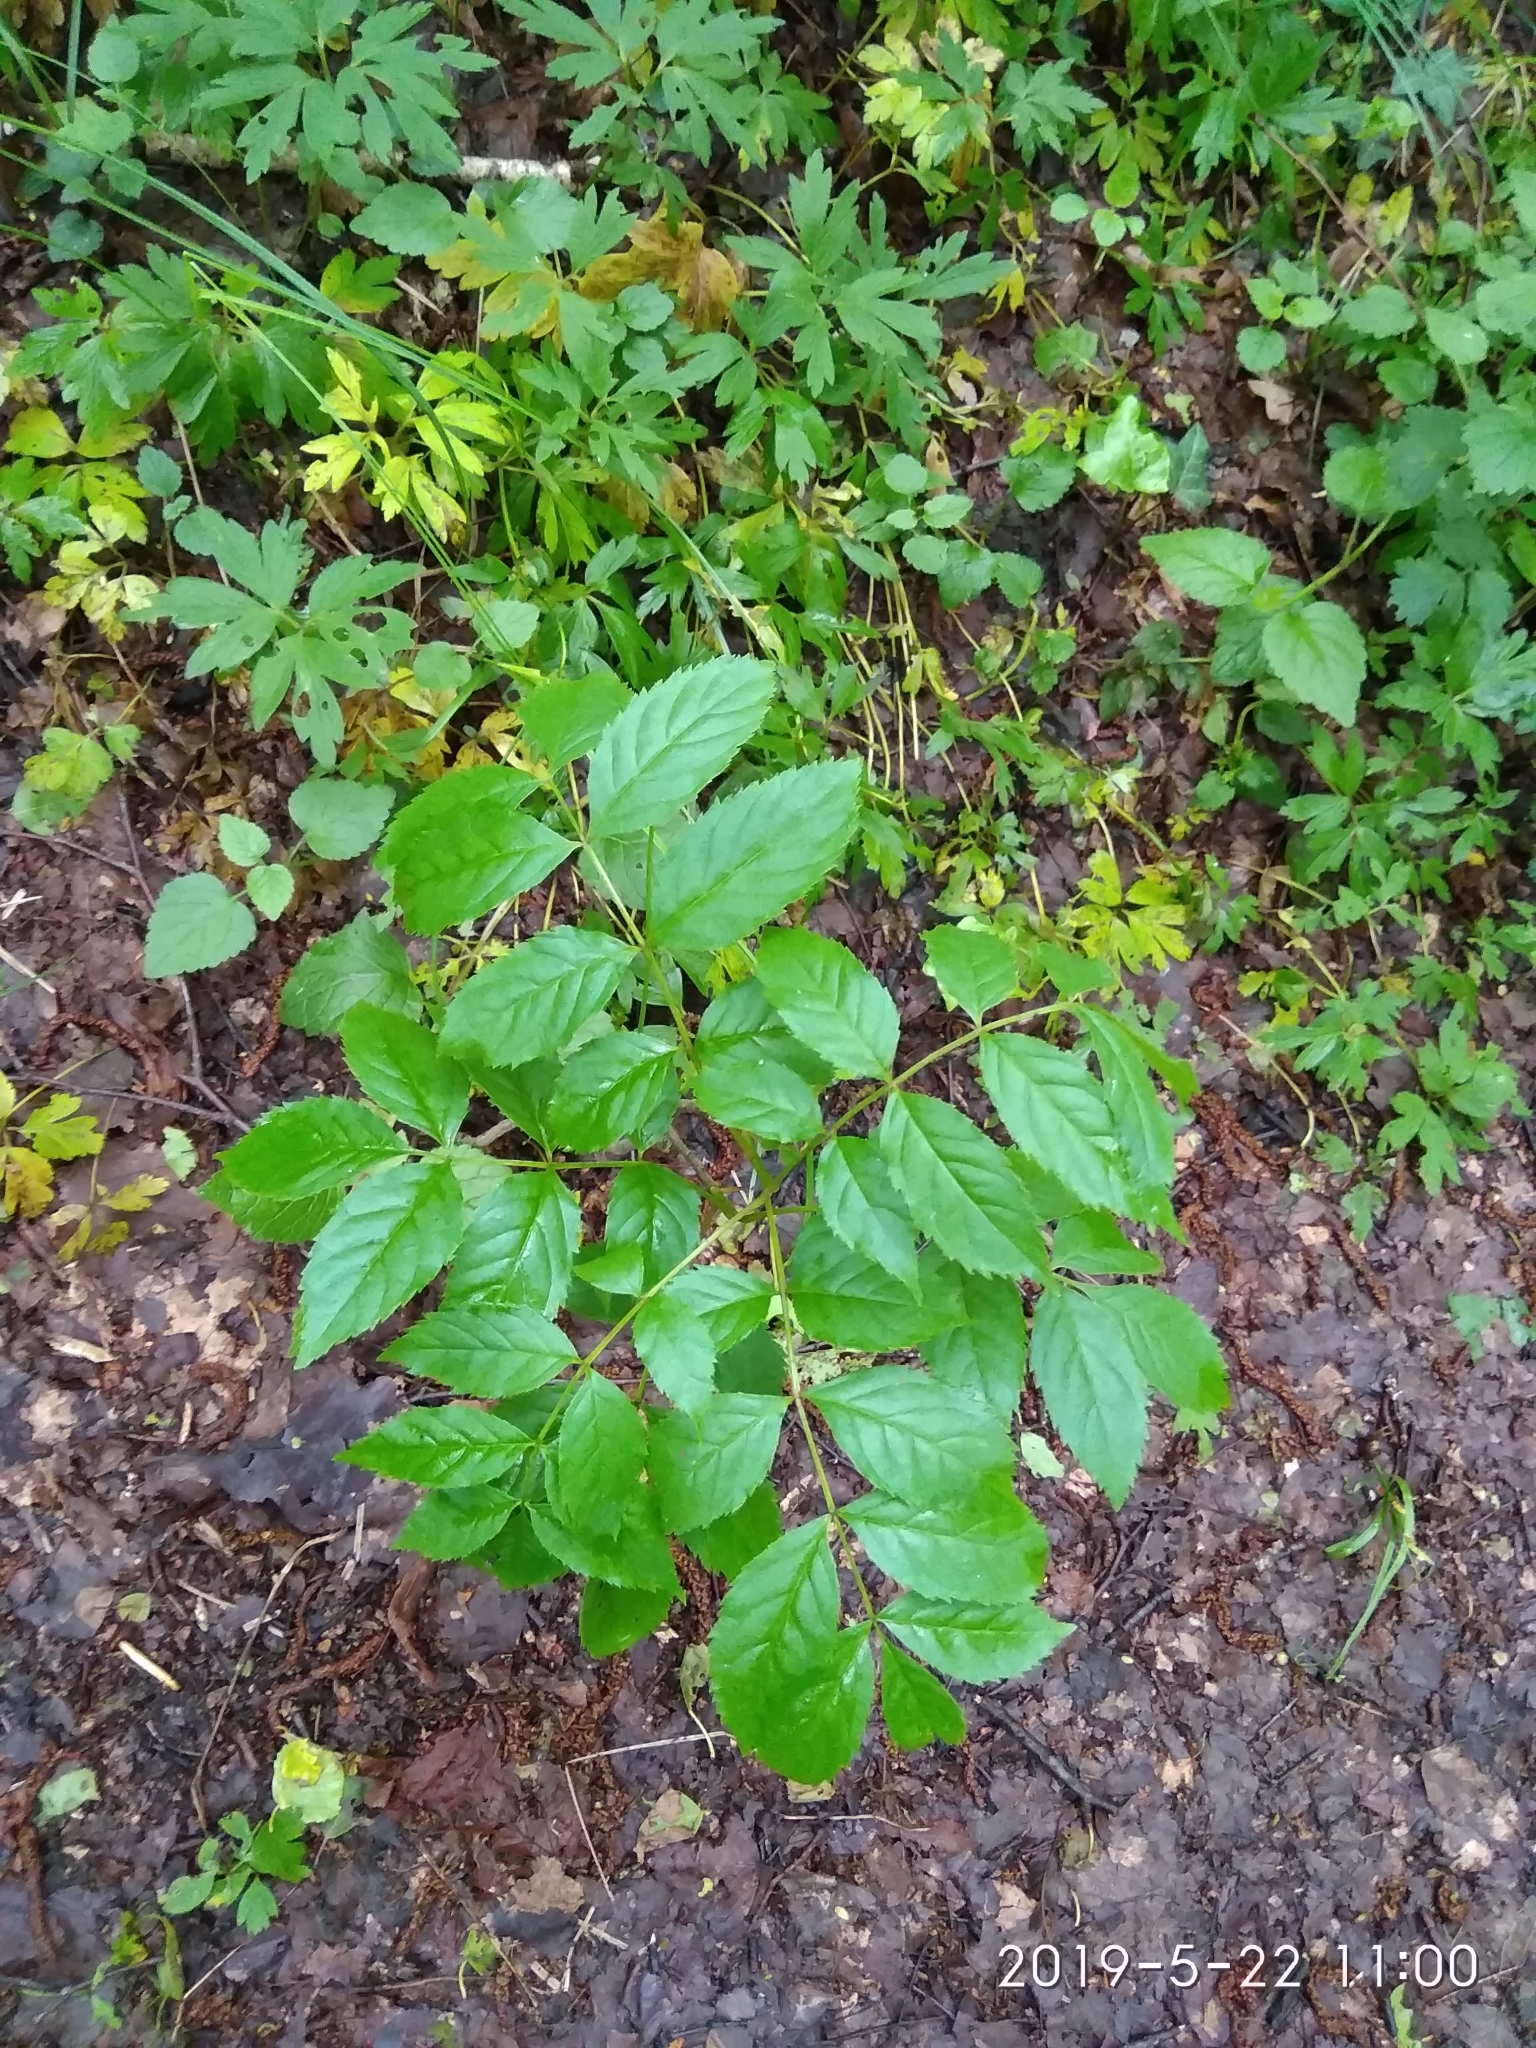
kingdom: Plantae
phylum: Tracheophyta
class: Magnoliopsida
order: Lamiales
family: Oleaceae
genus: Fraxinus
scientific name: Fraxinus excelsior
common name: European ash
